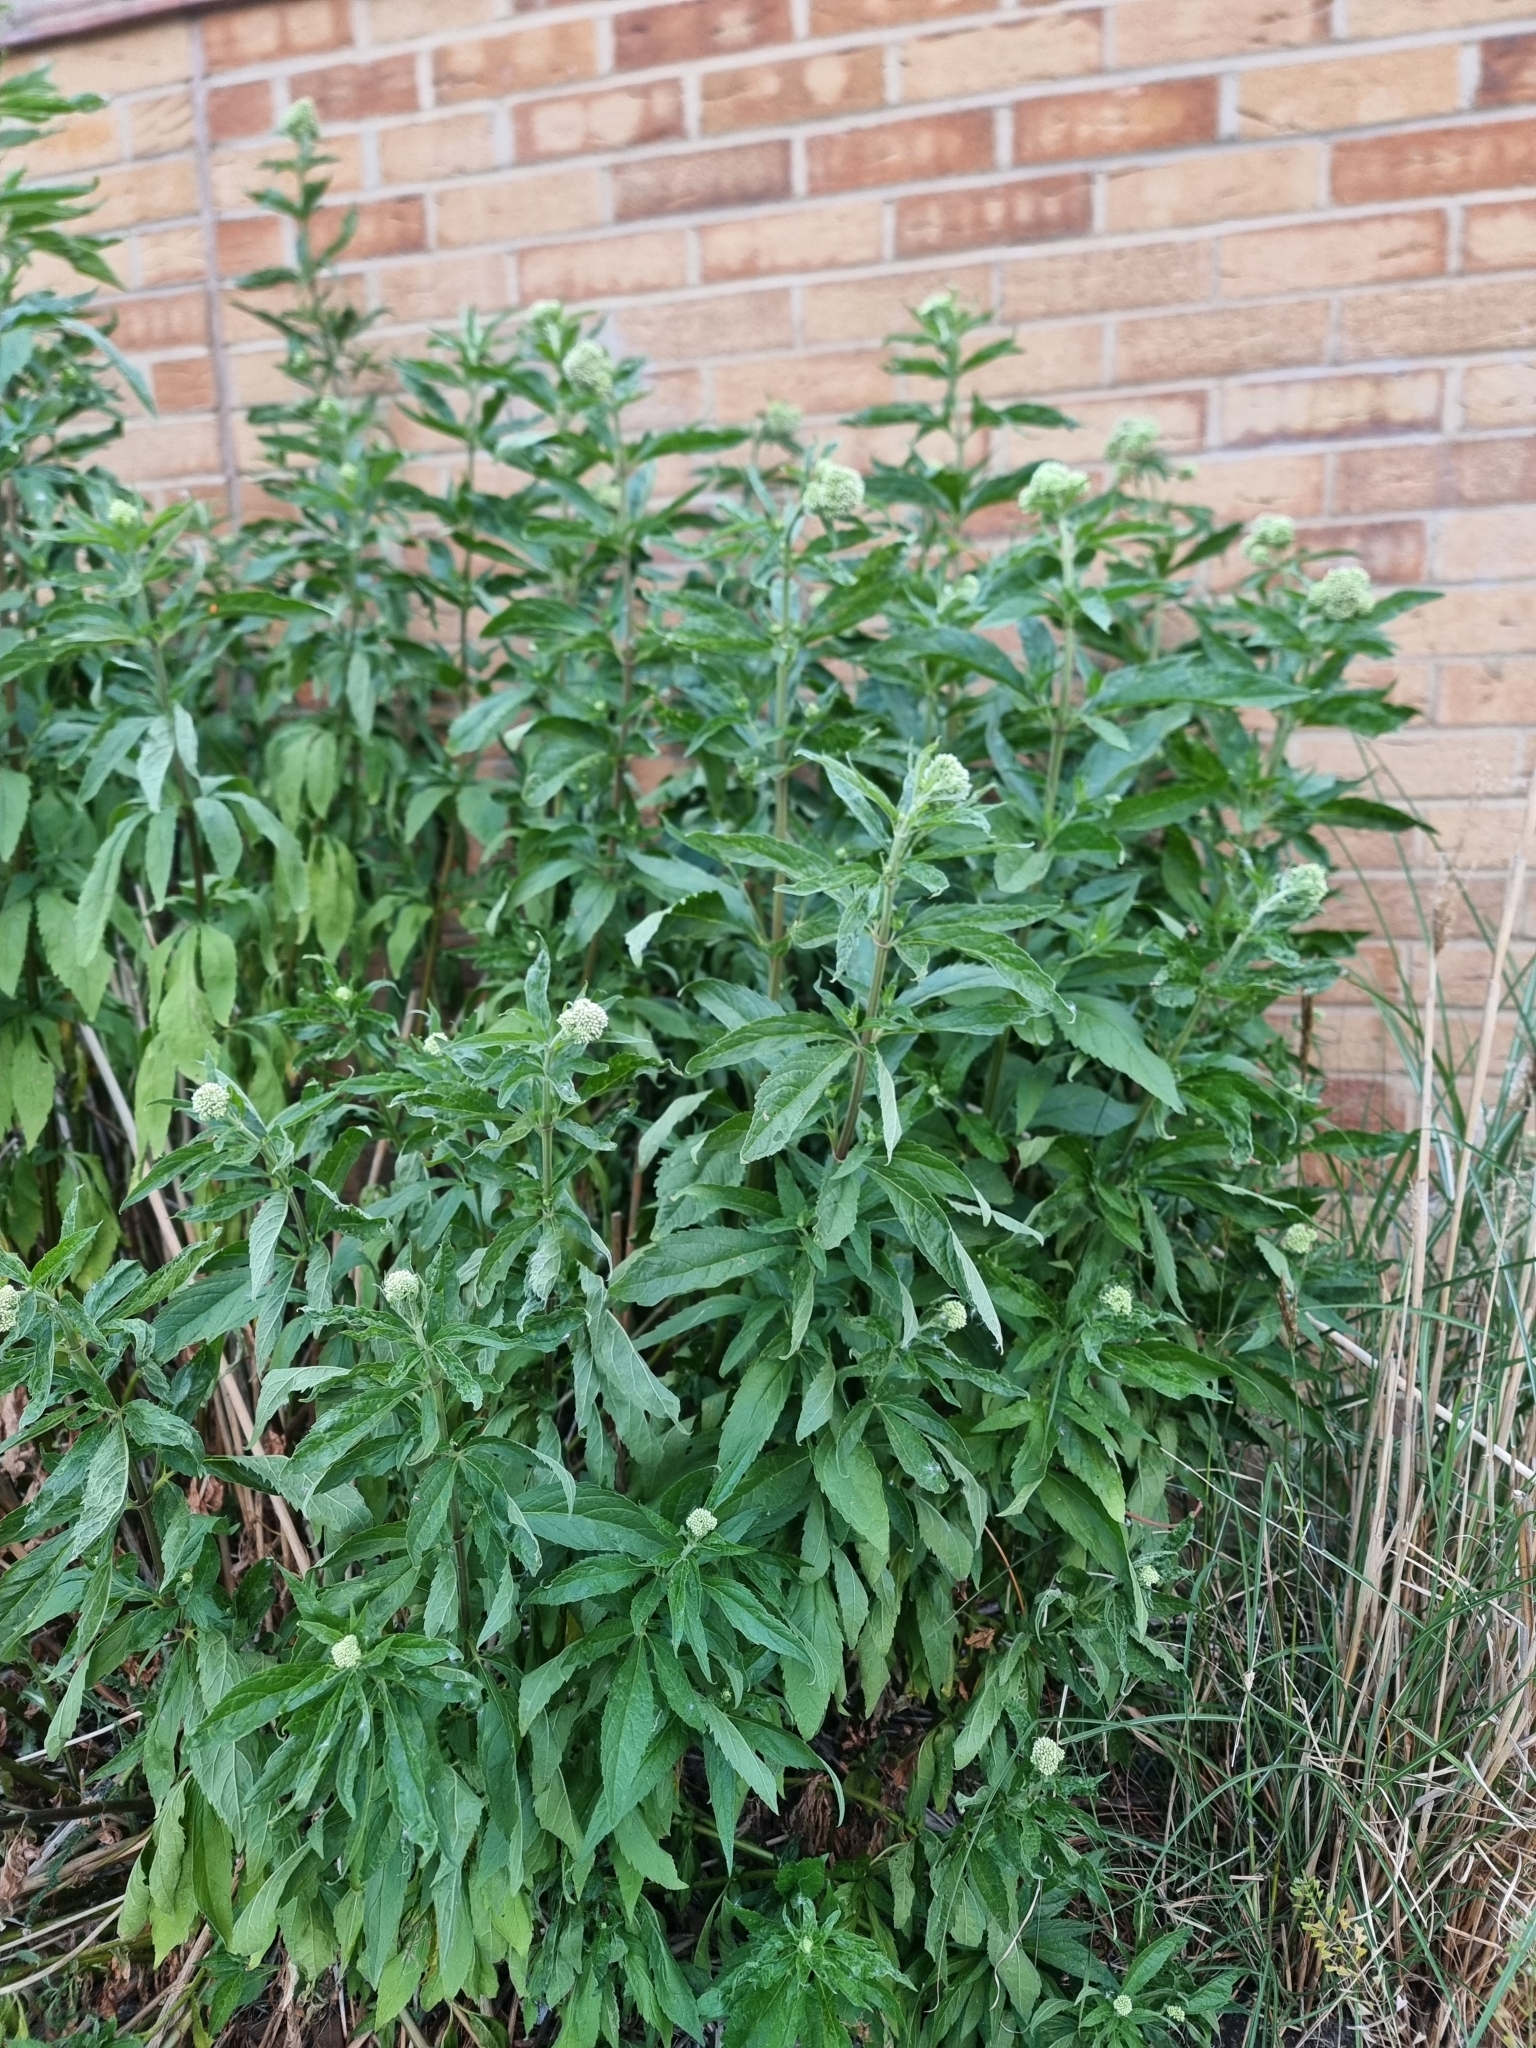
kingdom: Plantae
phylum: Tracheophyta
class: Magnoliopsida
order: Asterales
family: Asteraceae
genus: Eupatorium
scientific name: Eupatorium cannabinum
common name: Hemp-agrimony
